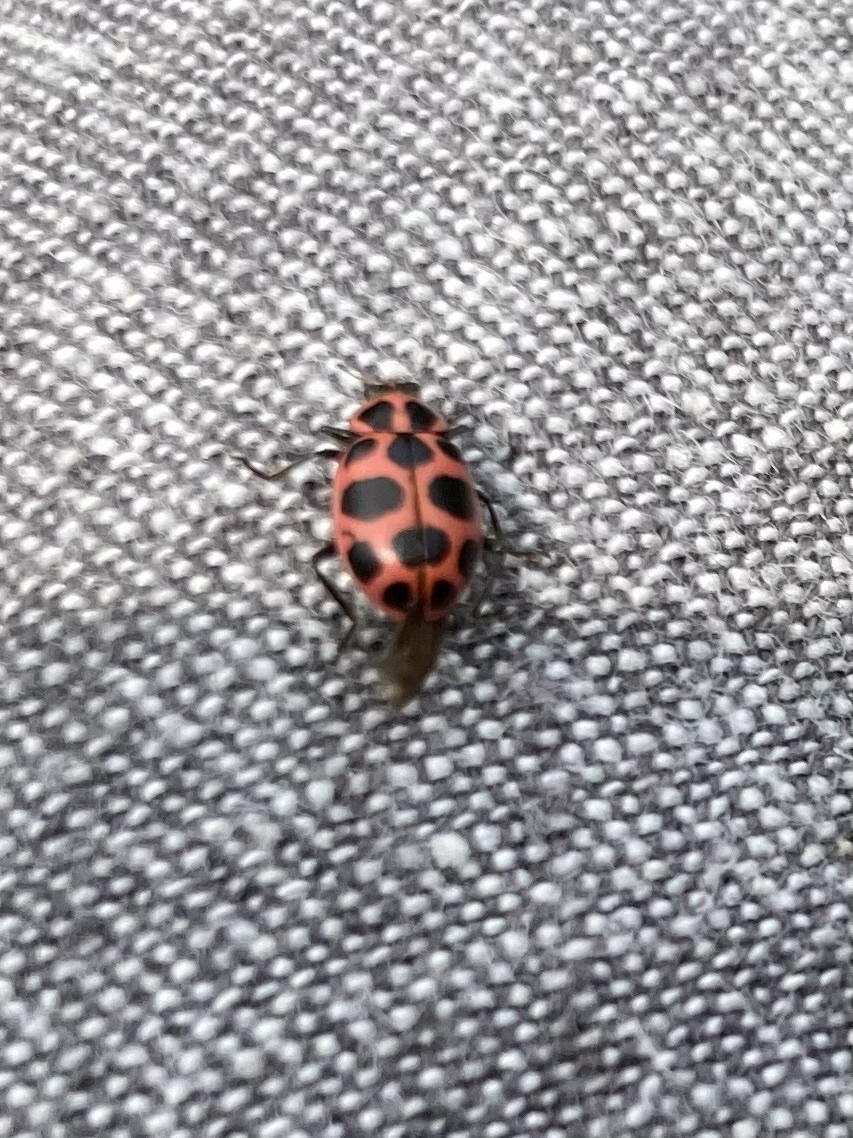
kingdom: Animalia
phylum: Arthropoda
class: Insecta
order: Coleoptera
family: Coccinellidae
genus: Coleomegilla
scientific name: Coleomegilla maculata
